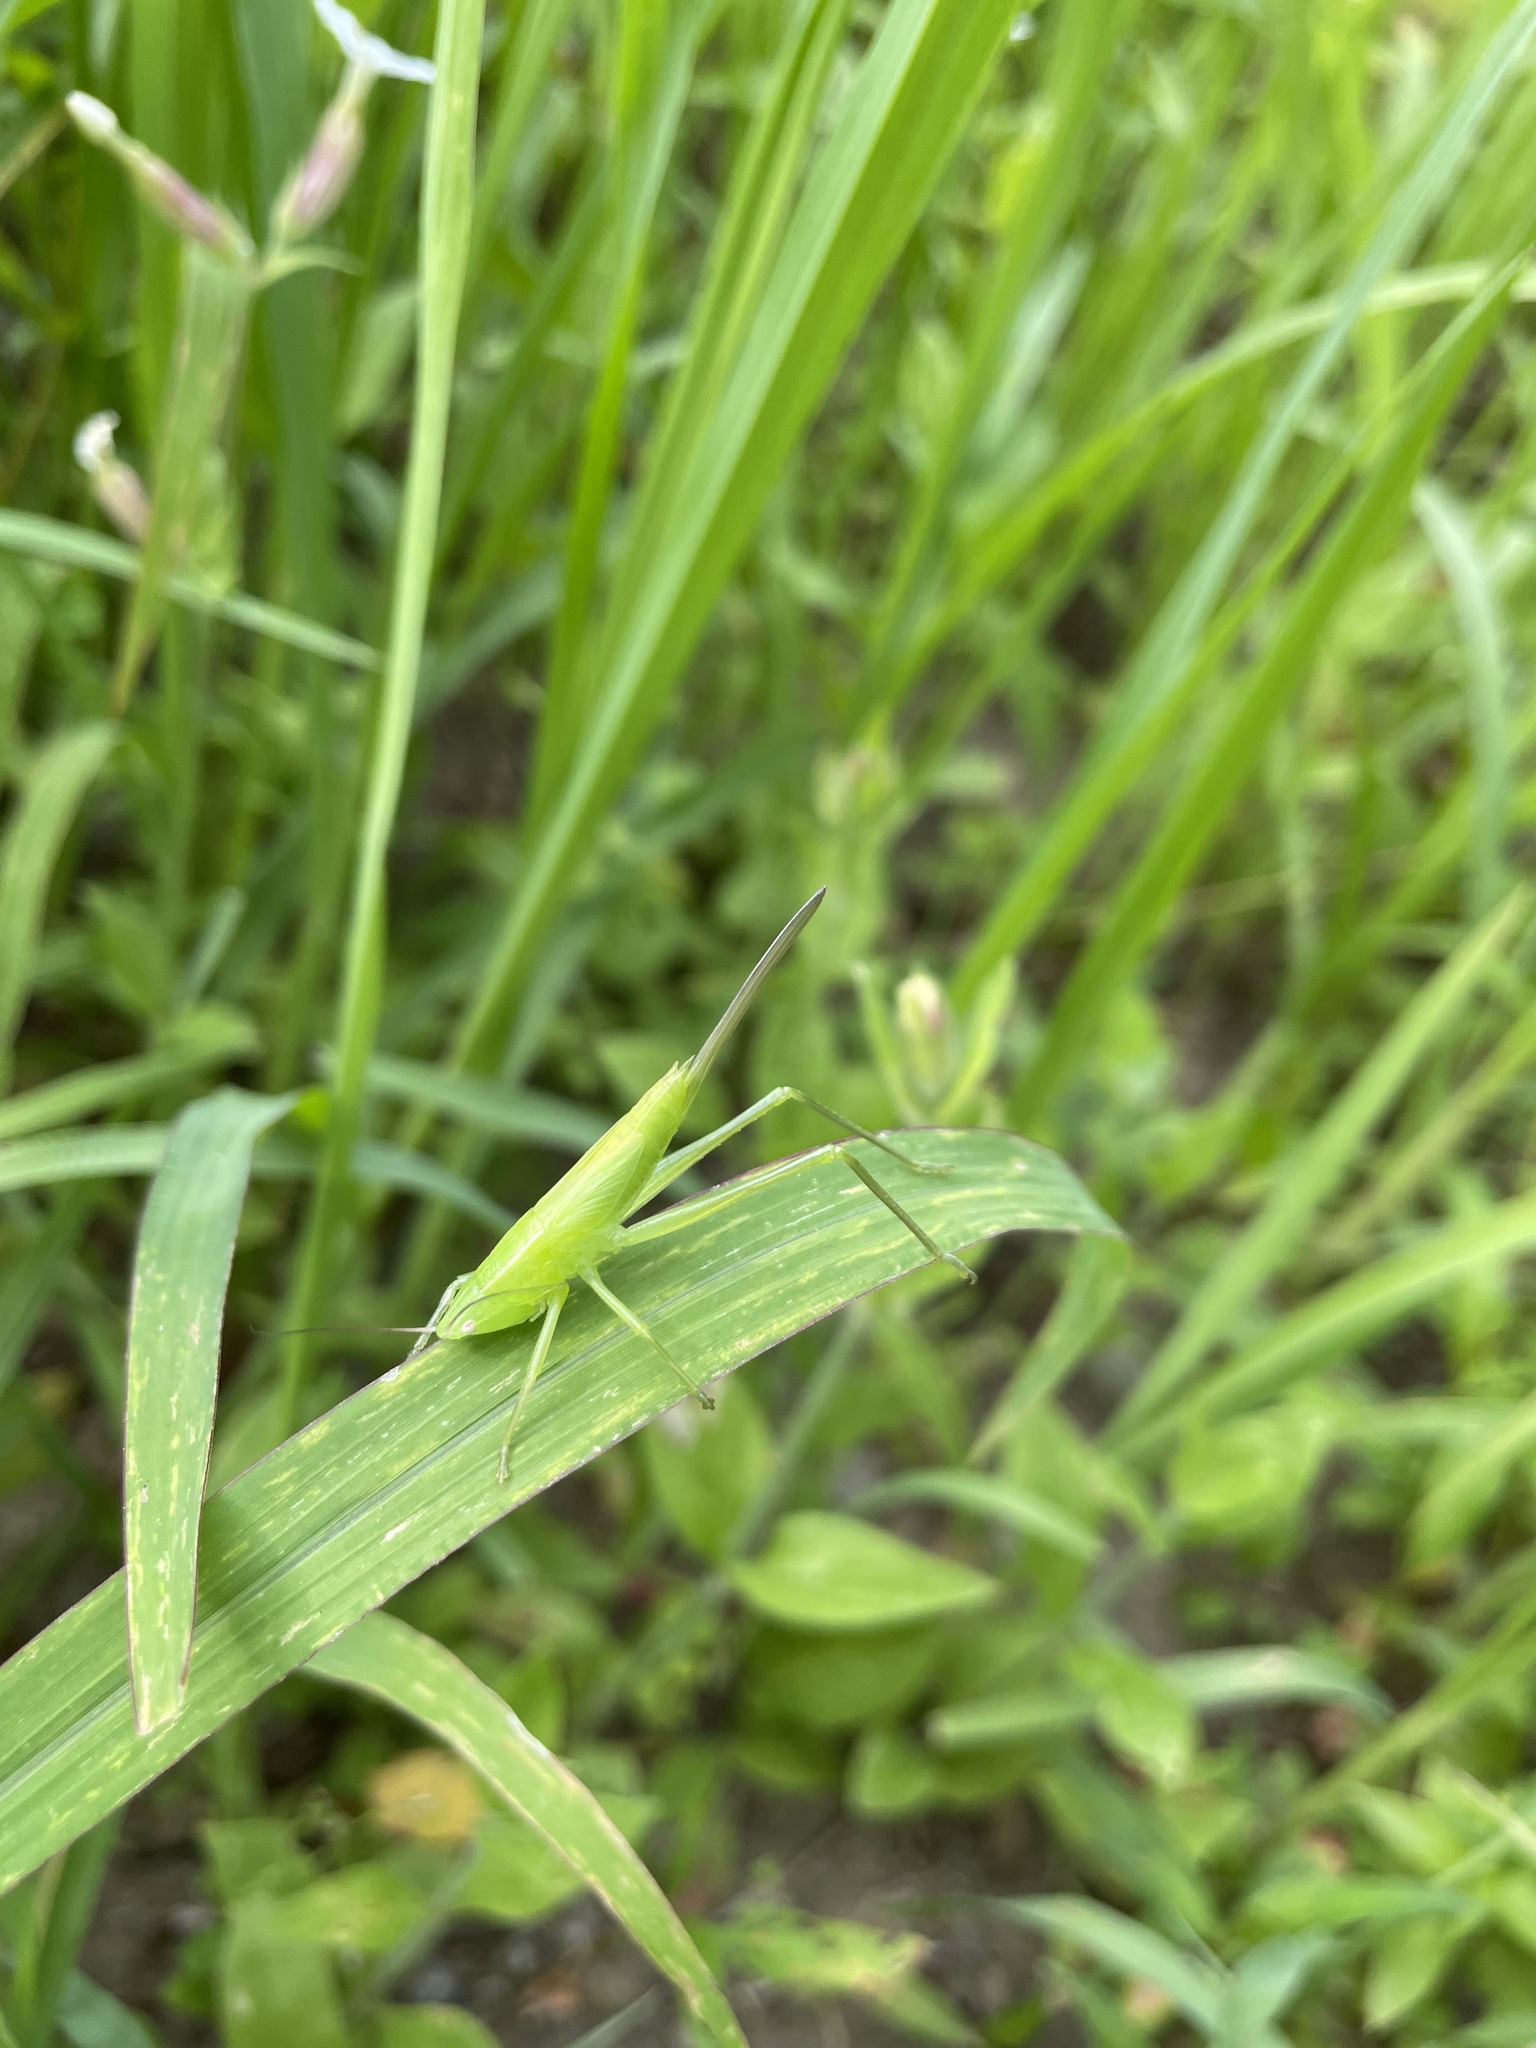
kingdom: Animalia
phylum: Arthropoda
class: Insecta
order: Orthoptera
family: Tettigoniidae
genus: Ruspolia
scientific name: Ruspolia nitidula
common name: Large conehead
